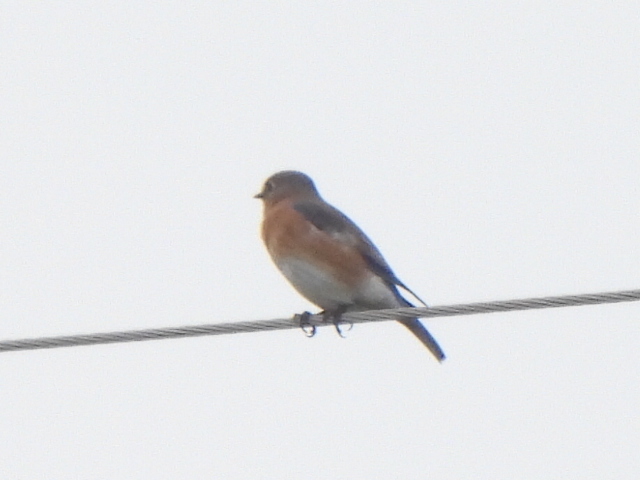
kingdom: Animalia
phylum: Chordata
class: Aves
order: Passeriformes
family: Turdidae
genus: Sialia
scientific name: Sialia sialis
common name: Eastern bluebird
